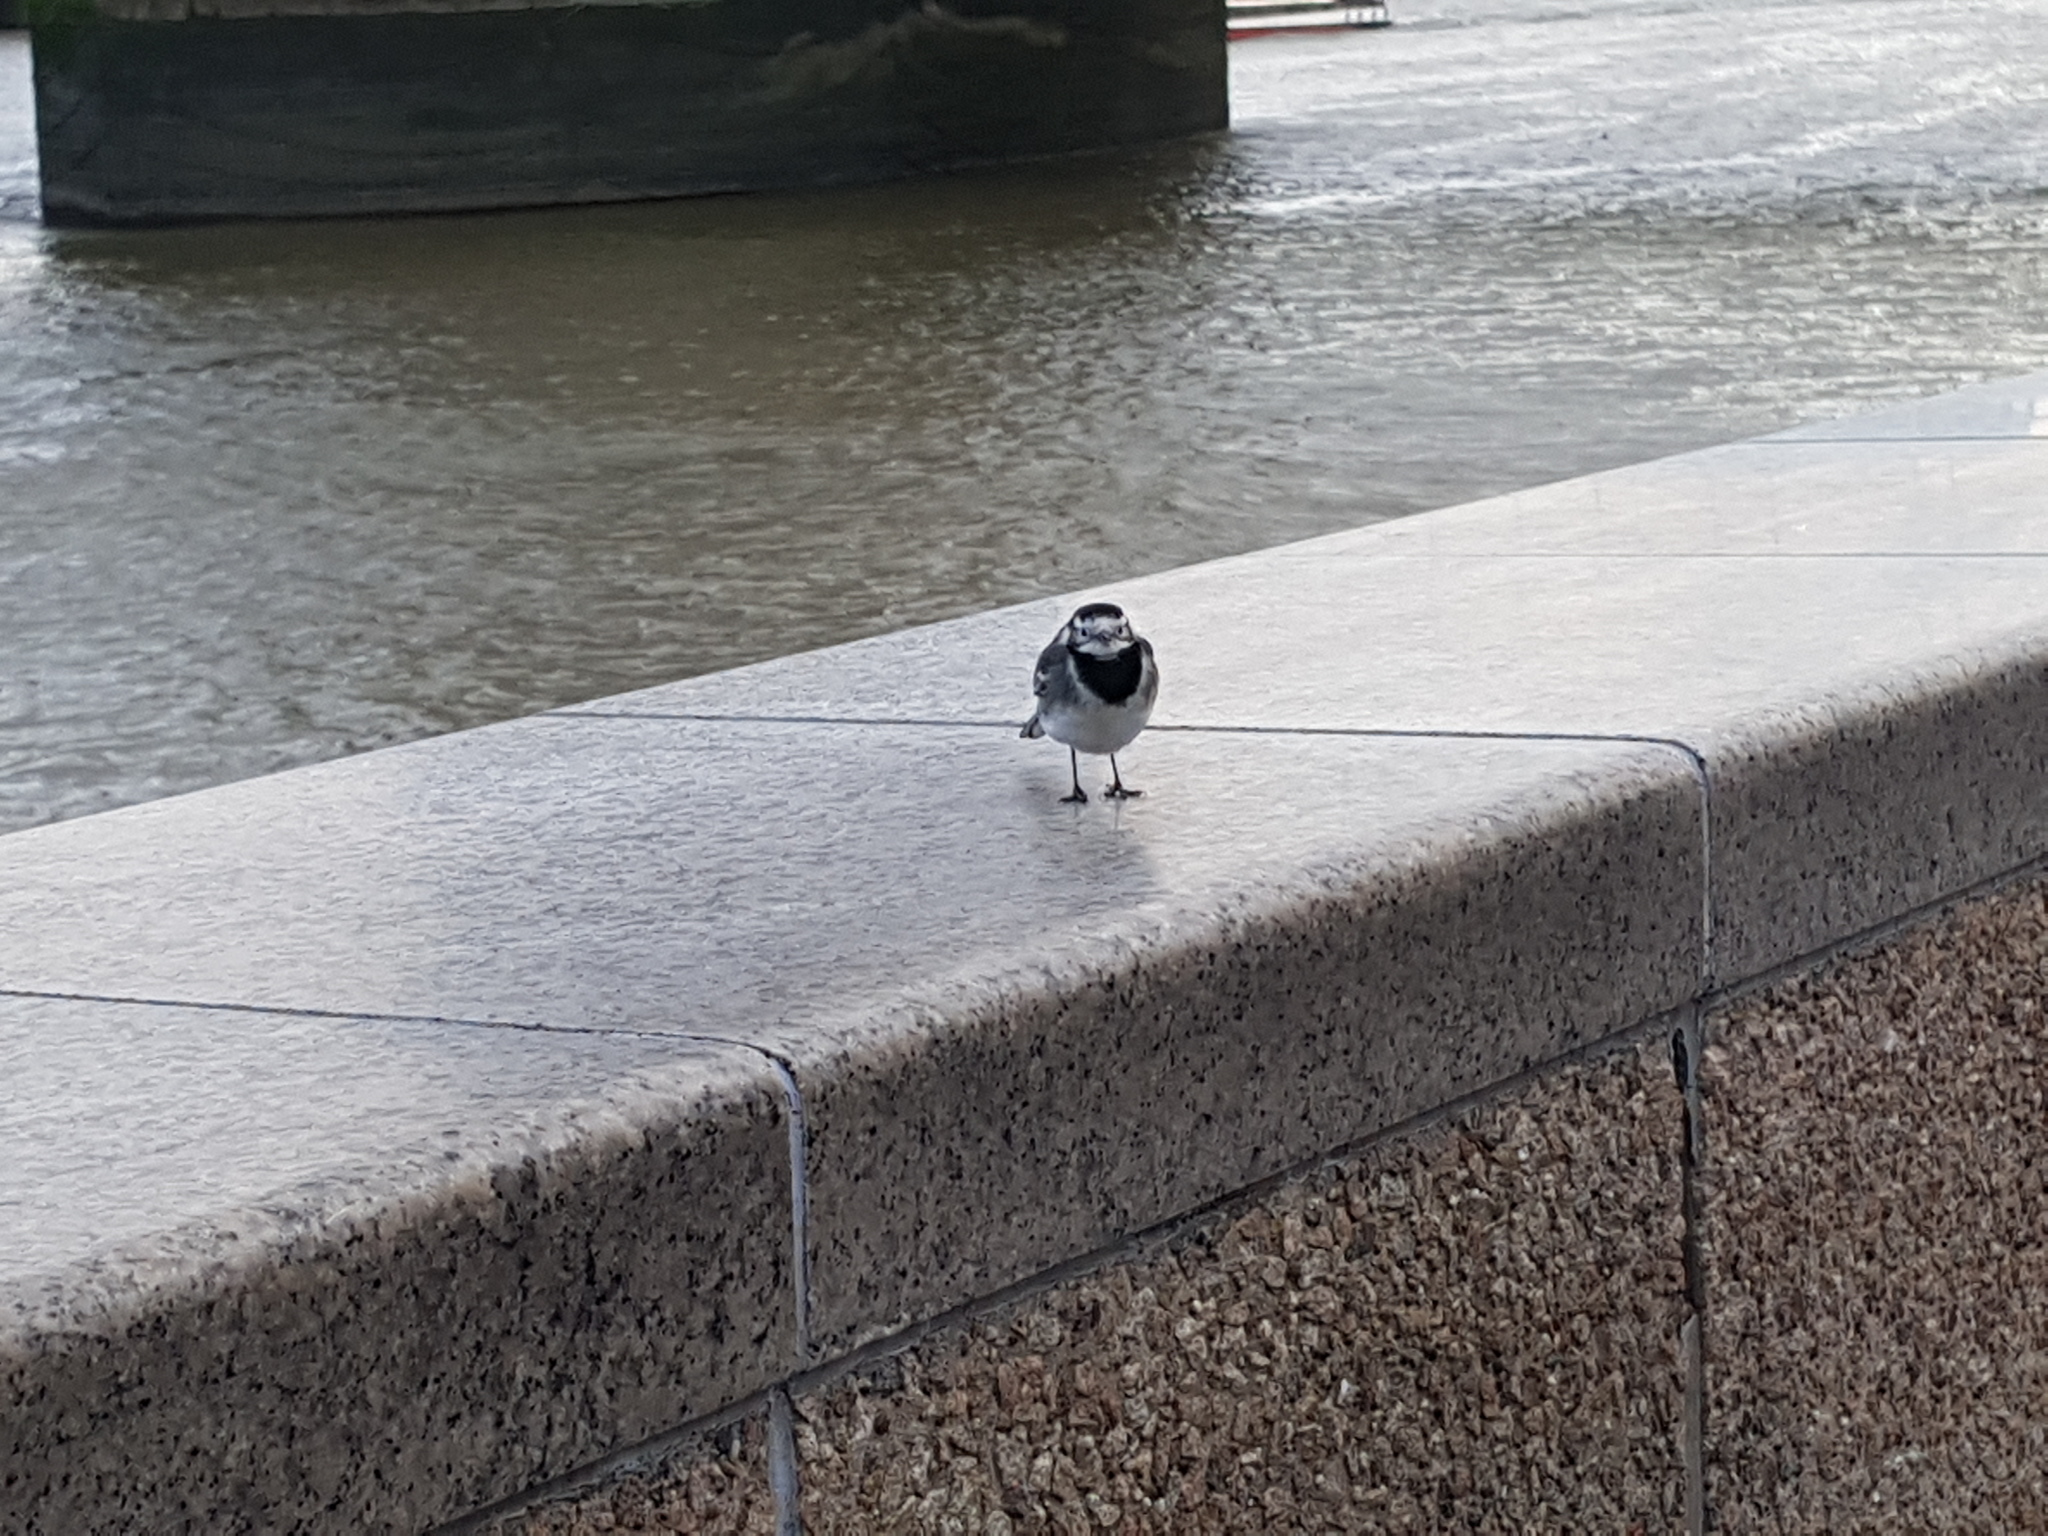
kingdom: Animalia
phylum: Chordata
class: Aves
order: Passeriformes
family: Motacillidae
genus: Motacilla
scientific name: Motacilla alba
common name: White wagtail
